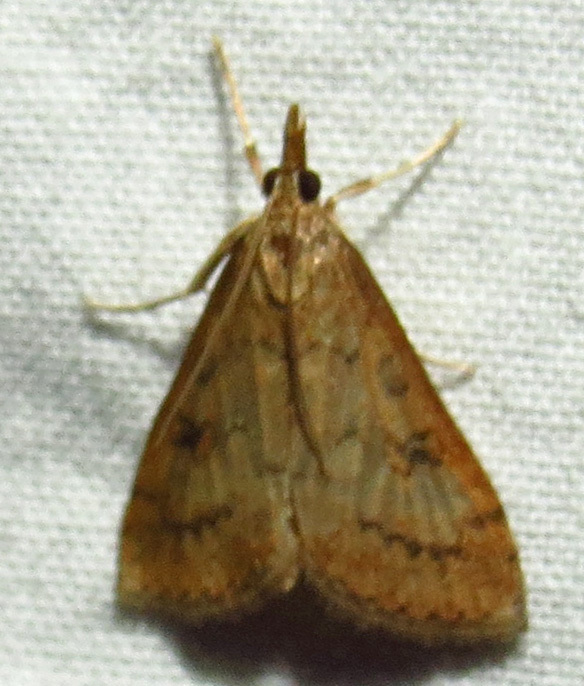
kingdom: Animalia
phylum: Arthropoda
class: Insecta
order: Lepidoptera
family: Crambidae
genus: Udea
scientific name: Udea rubigalis
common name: Celery leaftier moth
